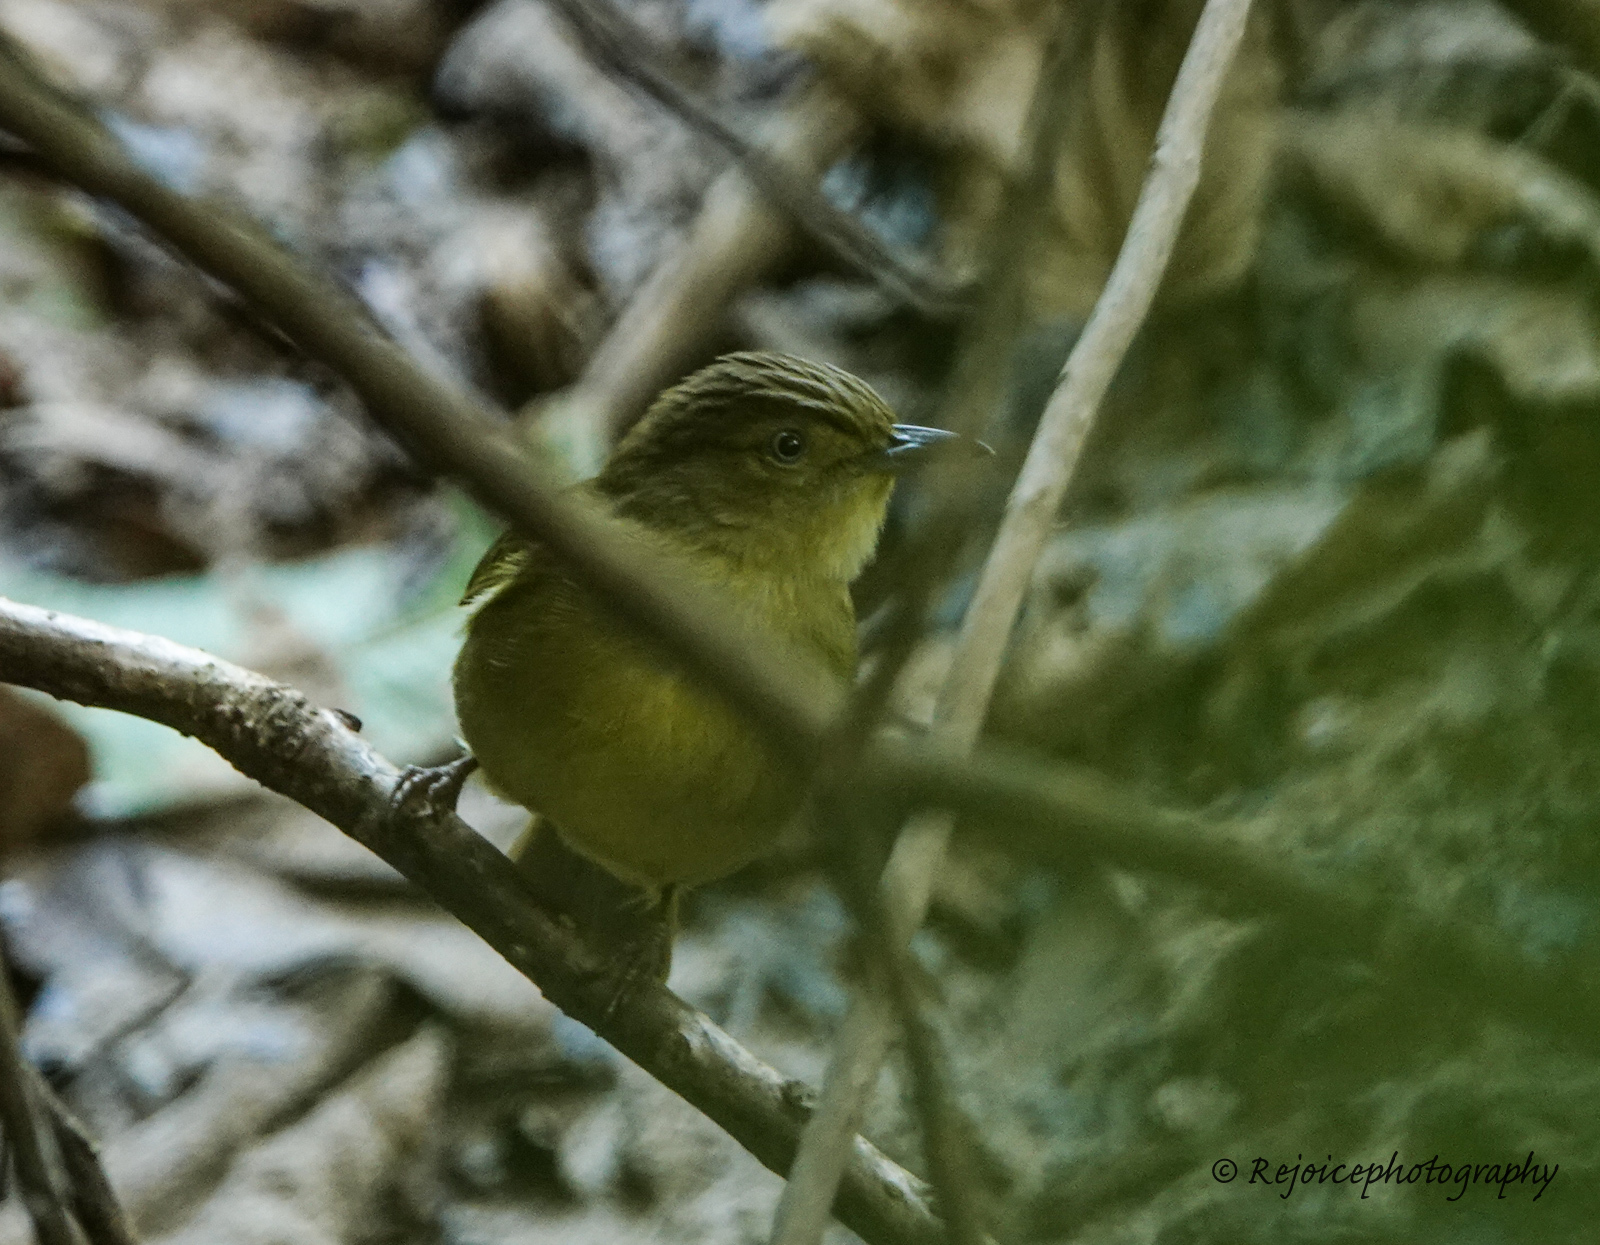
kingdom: Animalia
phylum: Chordata
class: Aves
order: Passeriformes
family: Pycnonotidae
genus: Iole
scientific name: Iole virescens
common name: Olive bulbul
